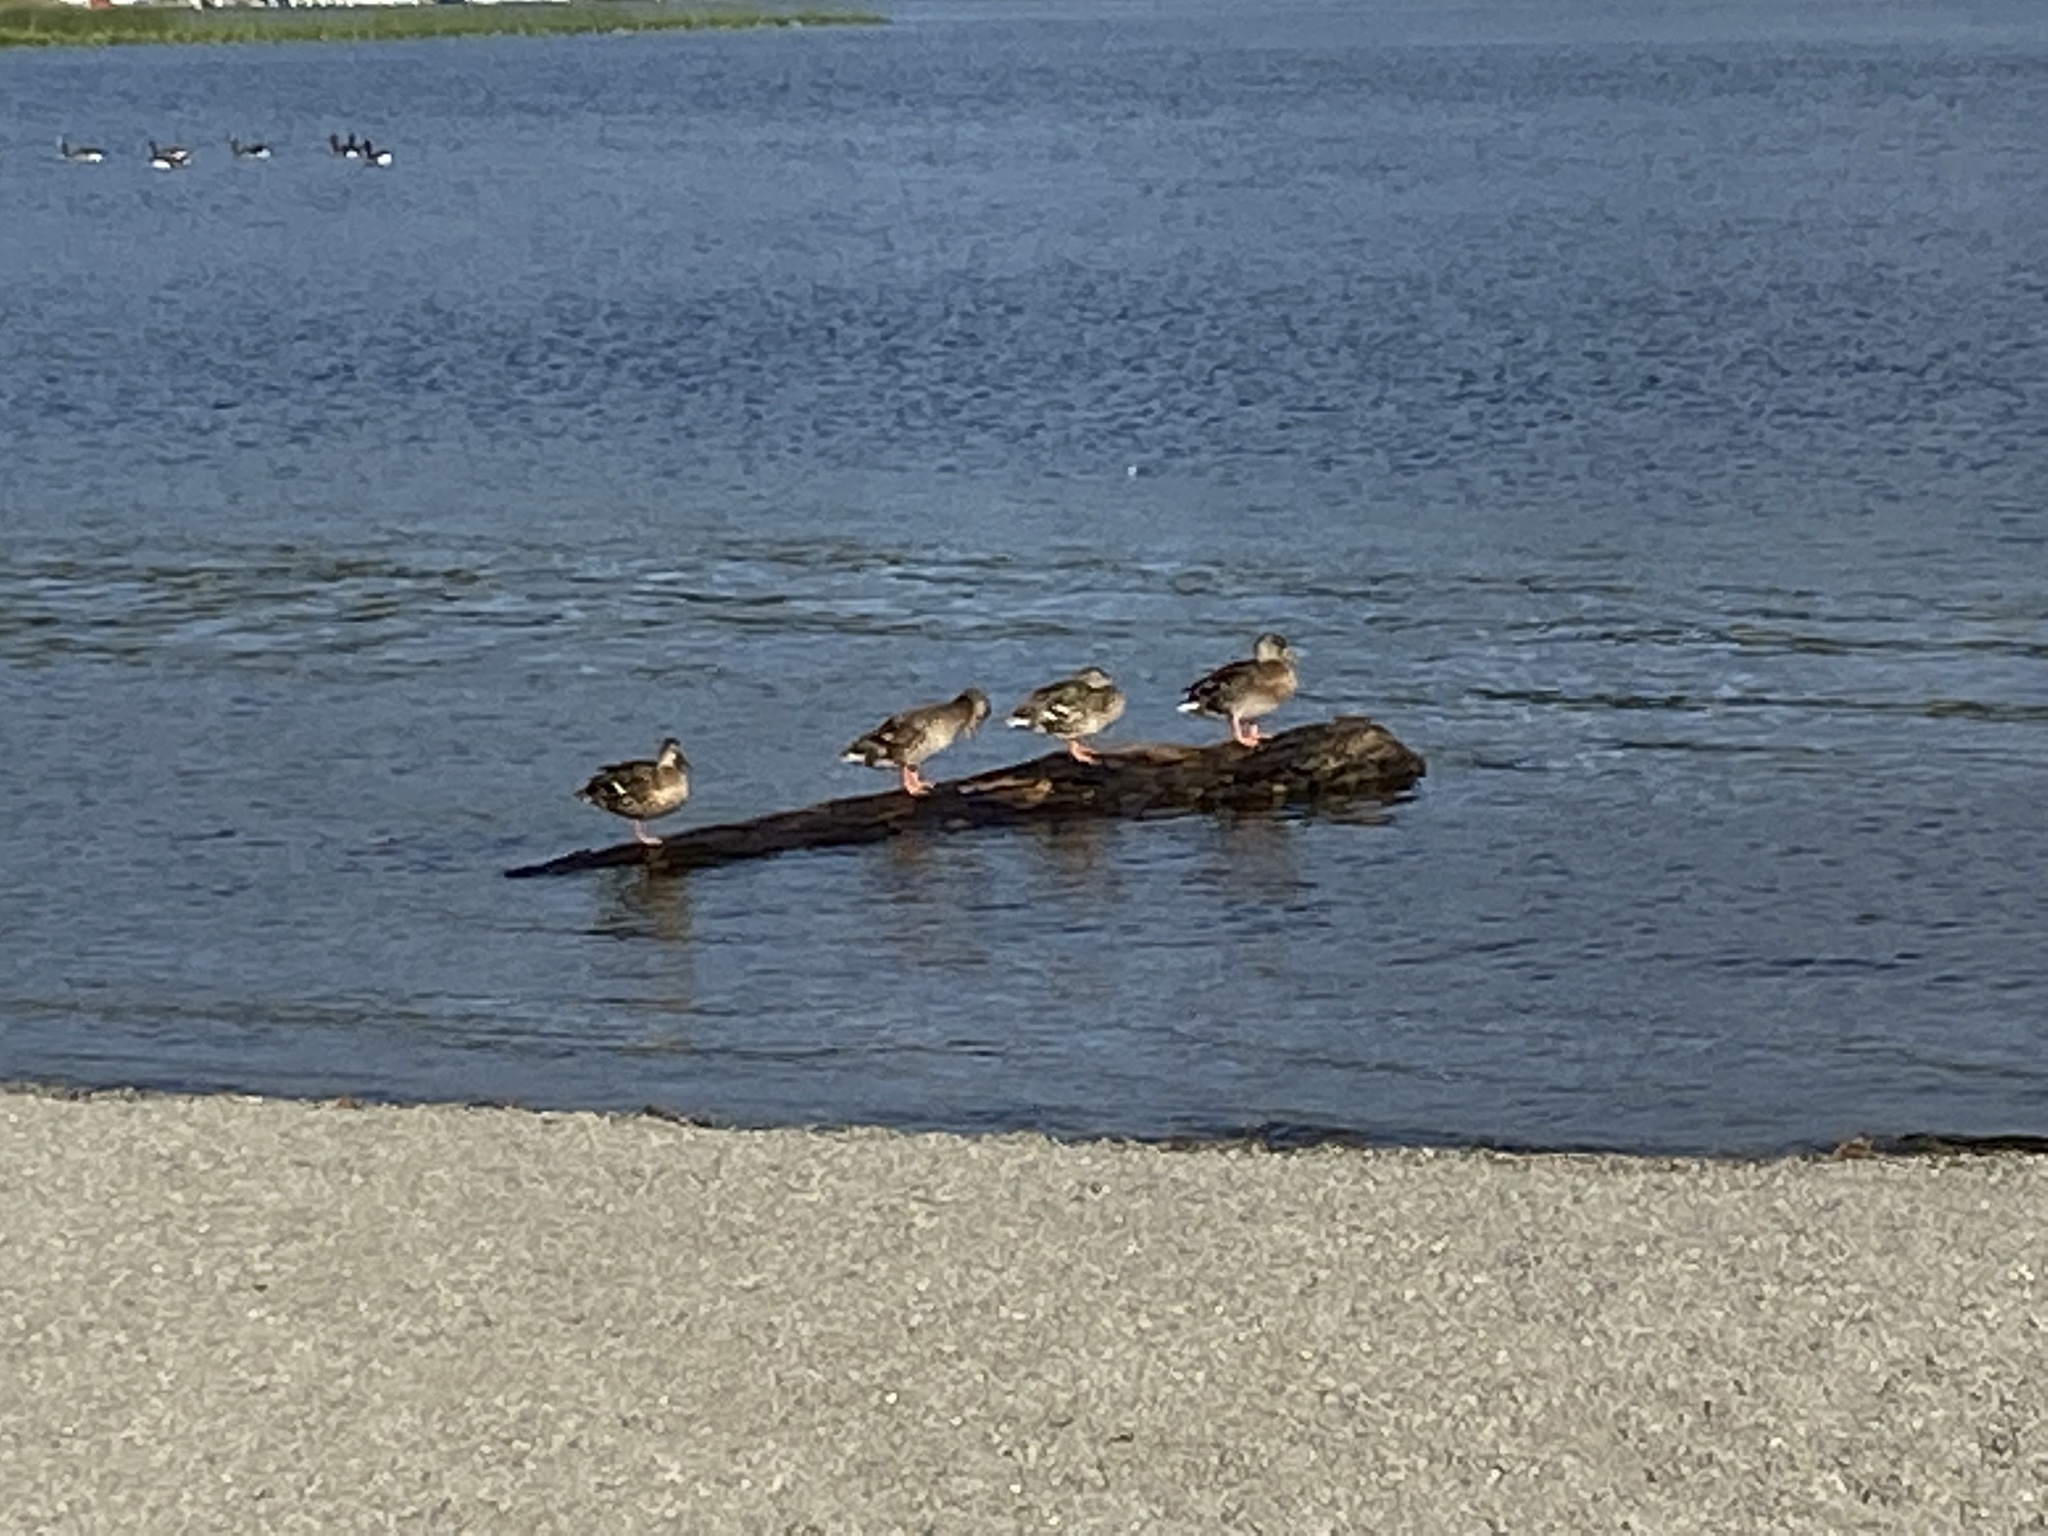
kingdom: Animalia
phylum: Chordata
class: Aves
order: Anseriformes
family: Anatidae
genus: Anas
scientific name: Anas platyrhynchos
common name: Mallard
